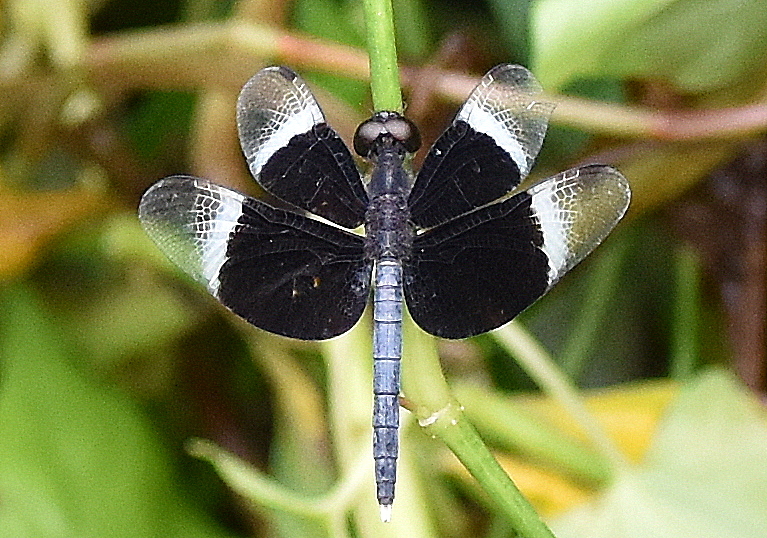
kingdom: Animalia
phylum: Arthropoda
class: Insecta
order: Odonata
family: Libellulidae
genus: Neurothemis
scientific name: Neurothemis tullia
